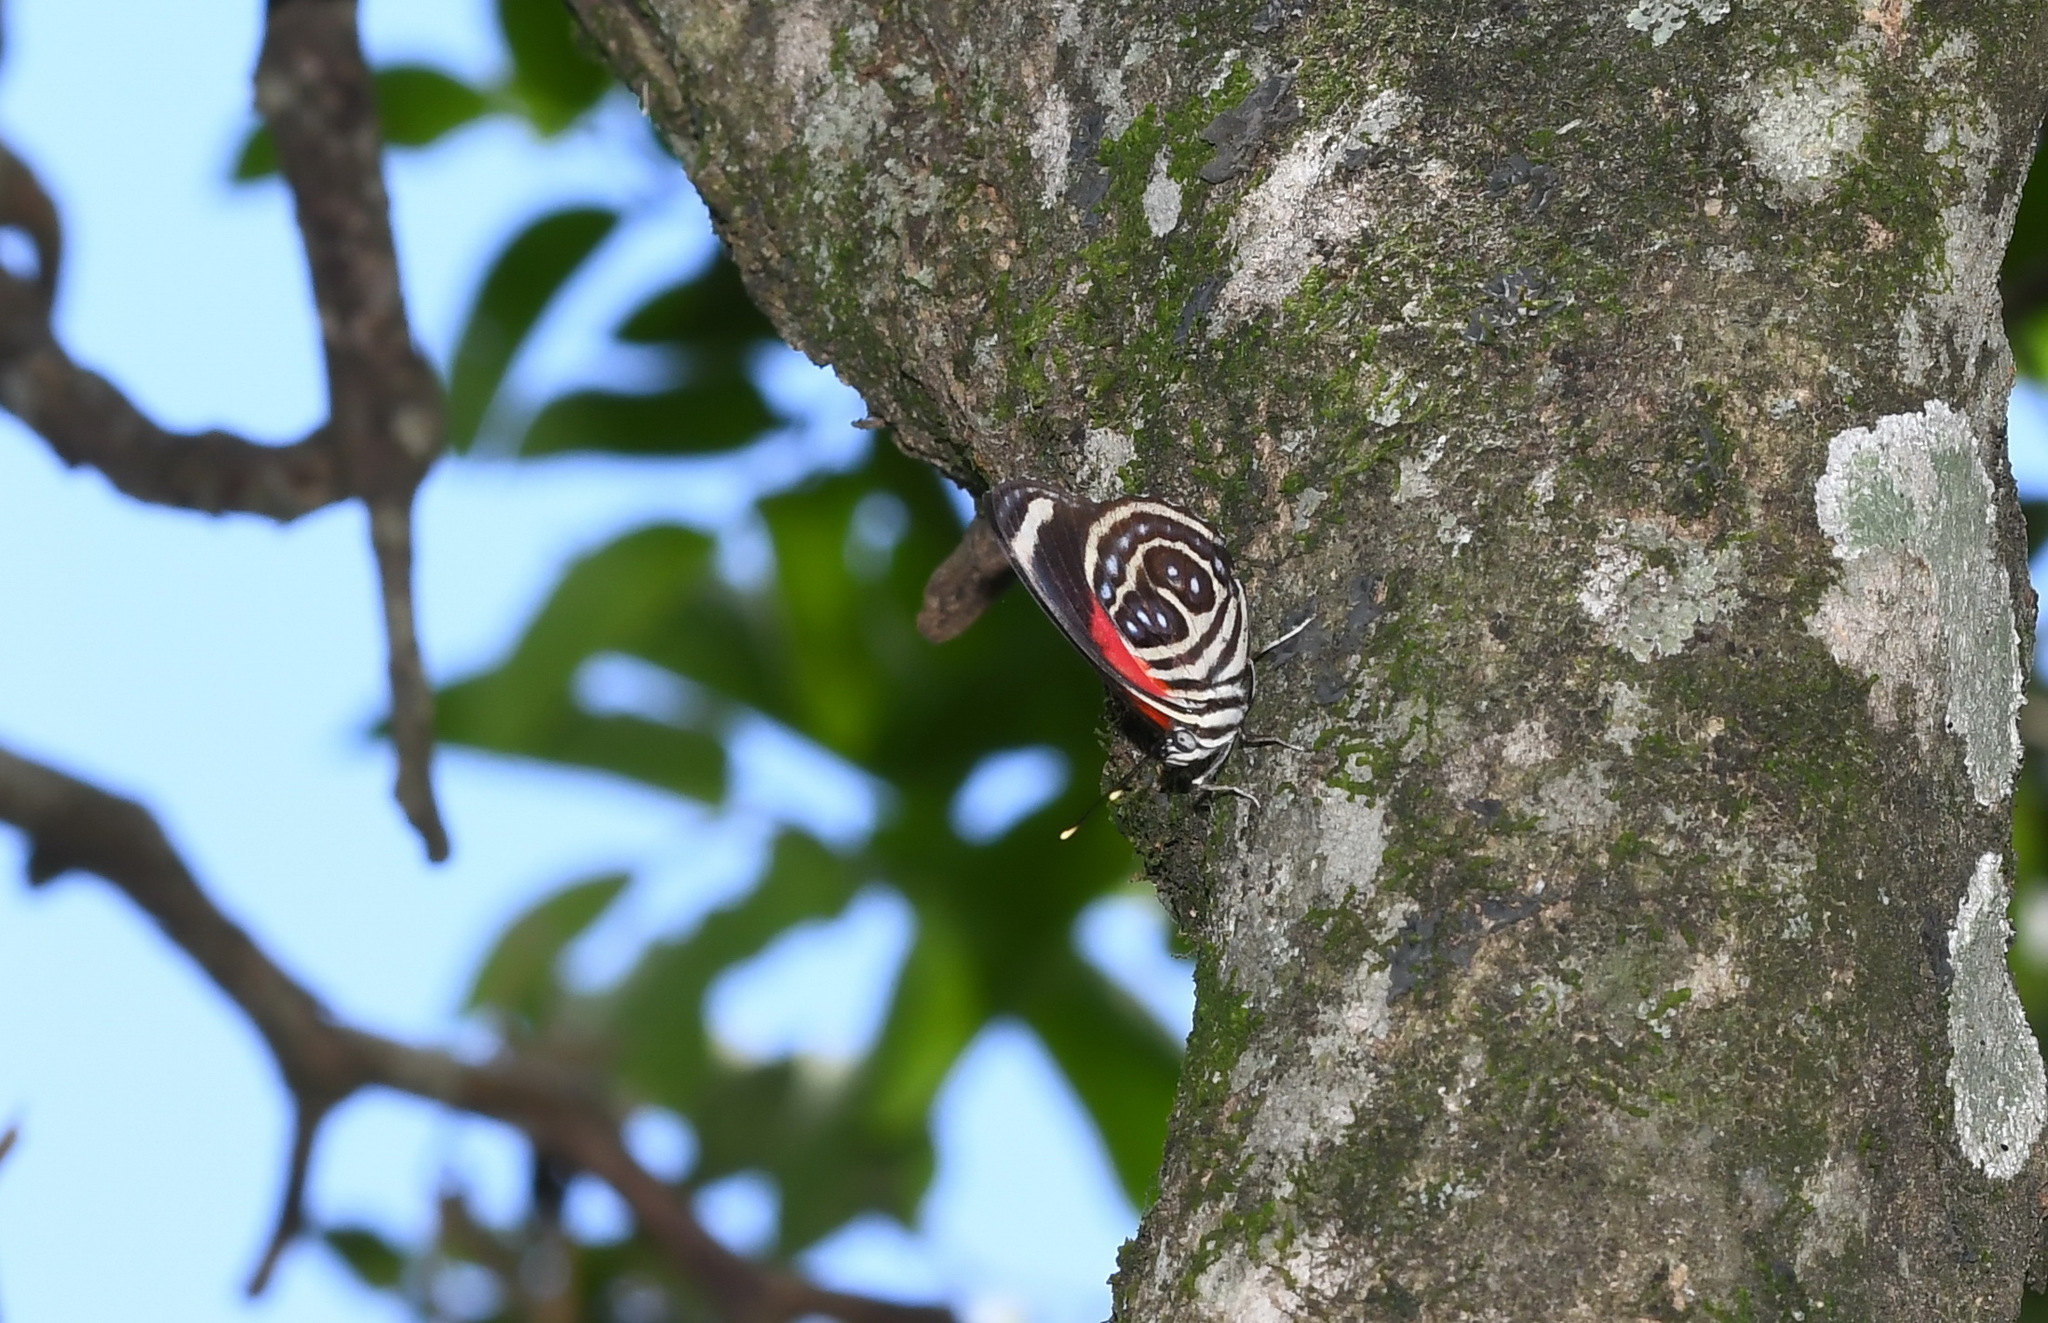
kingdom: Animalia
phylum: Arthropoda
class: Insecta
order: Lepidoptera
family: Nymphalidae
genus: Catagramma
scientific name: Catagramma pygas
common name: Godart's numberwing
